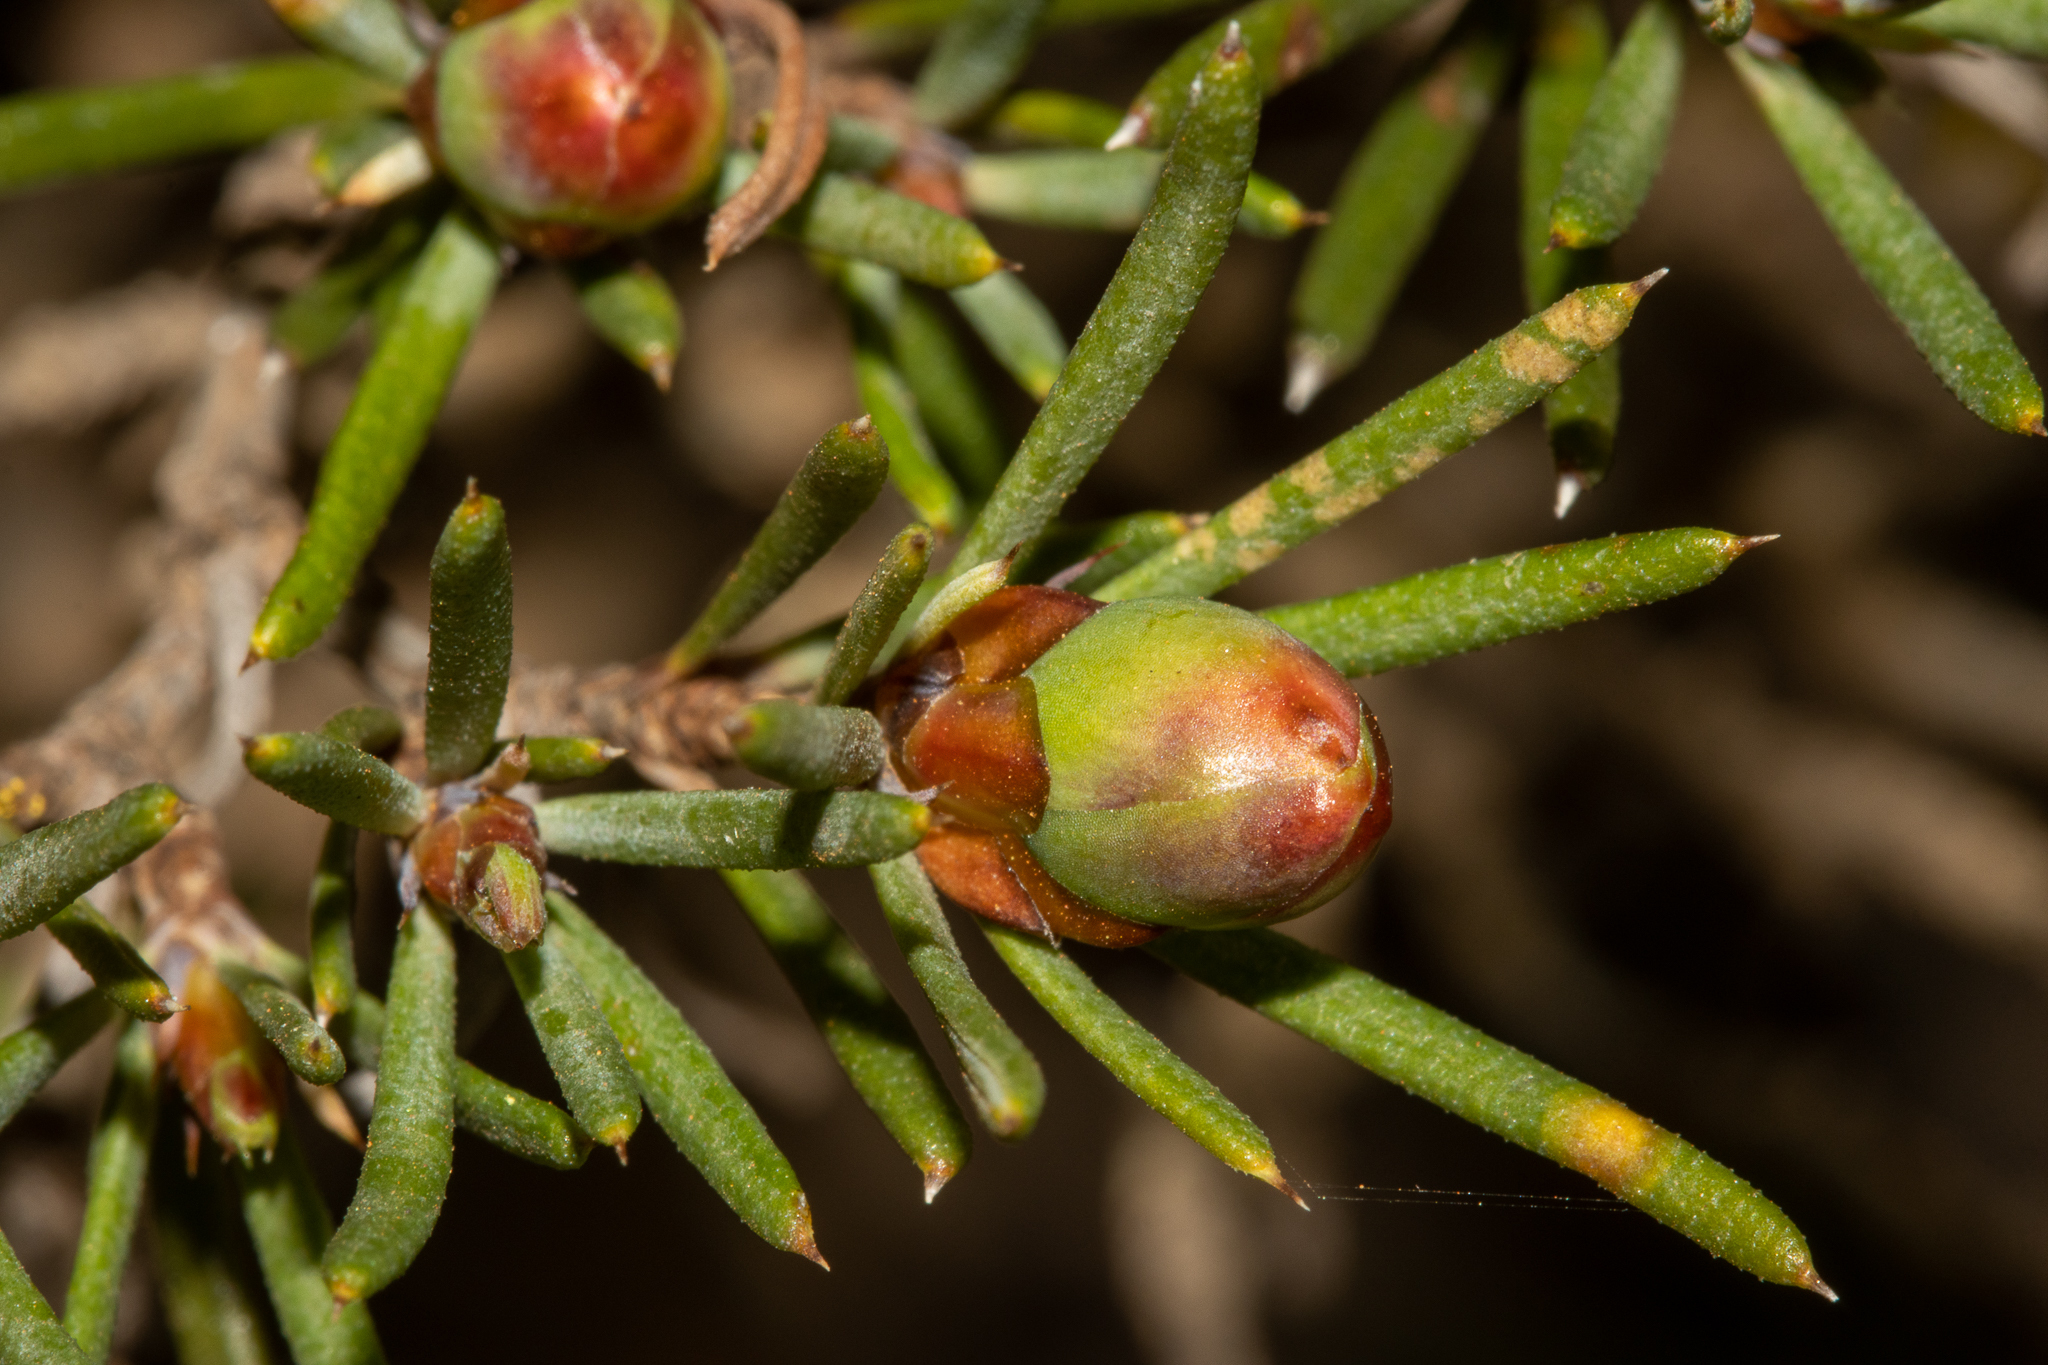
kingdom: Plantae
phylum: Tracheophyta
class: Magnoliopsida
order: Dilleniales
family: Dilleniaceae
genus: Hibbertia
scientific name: Hibbertia exasperata
